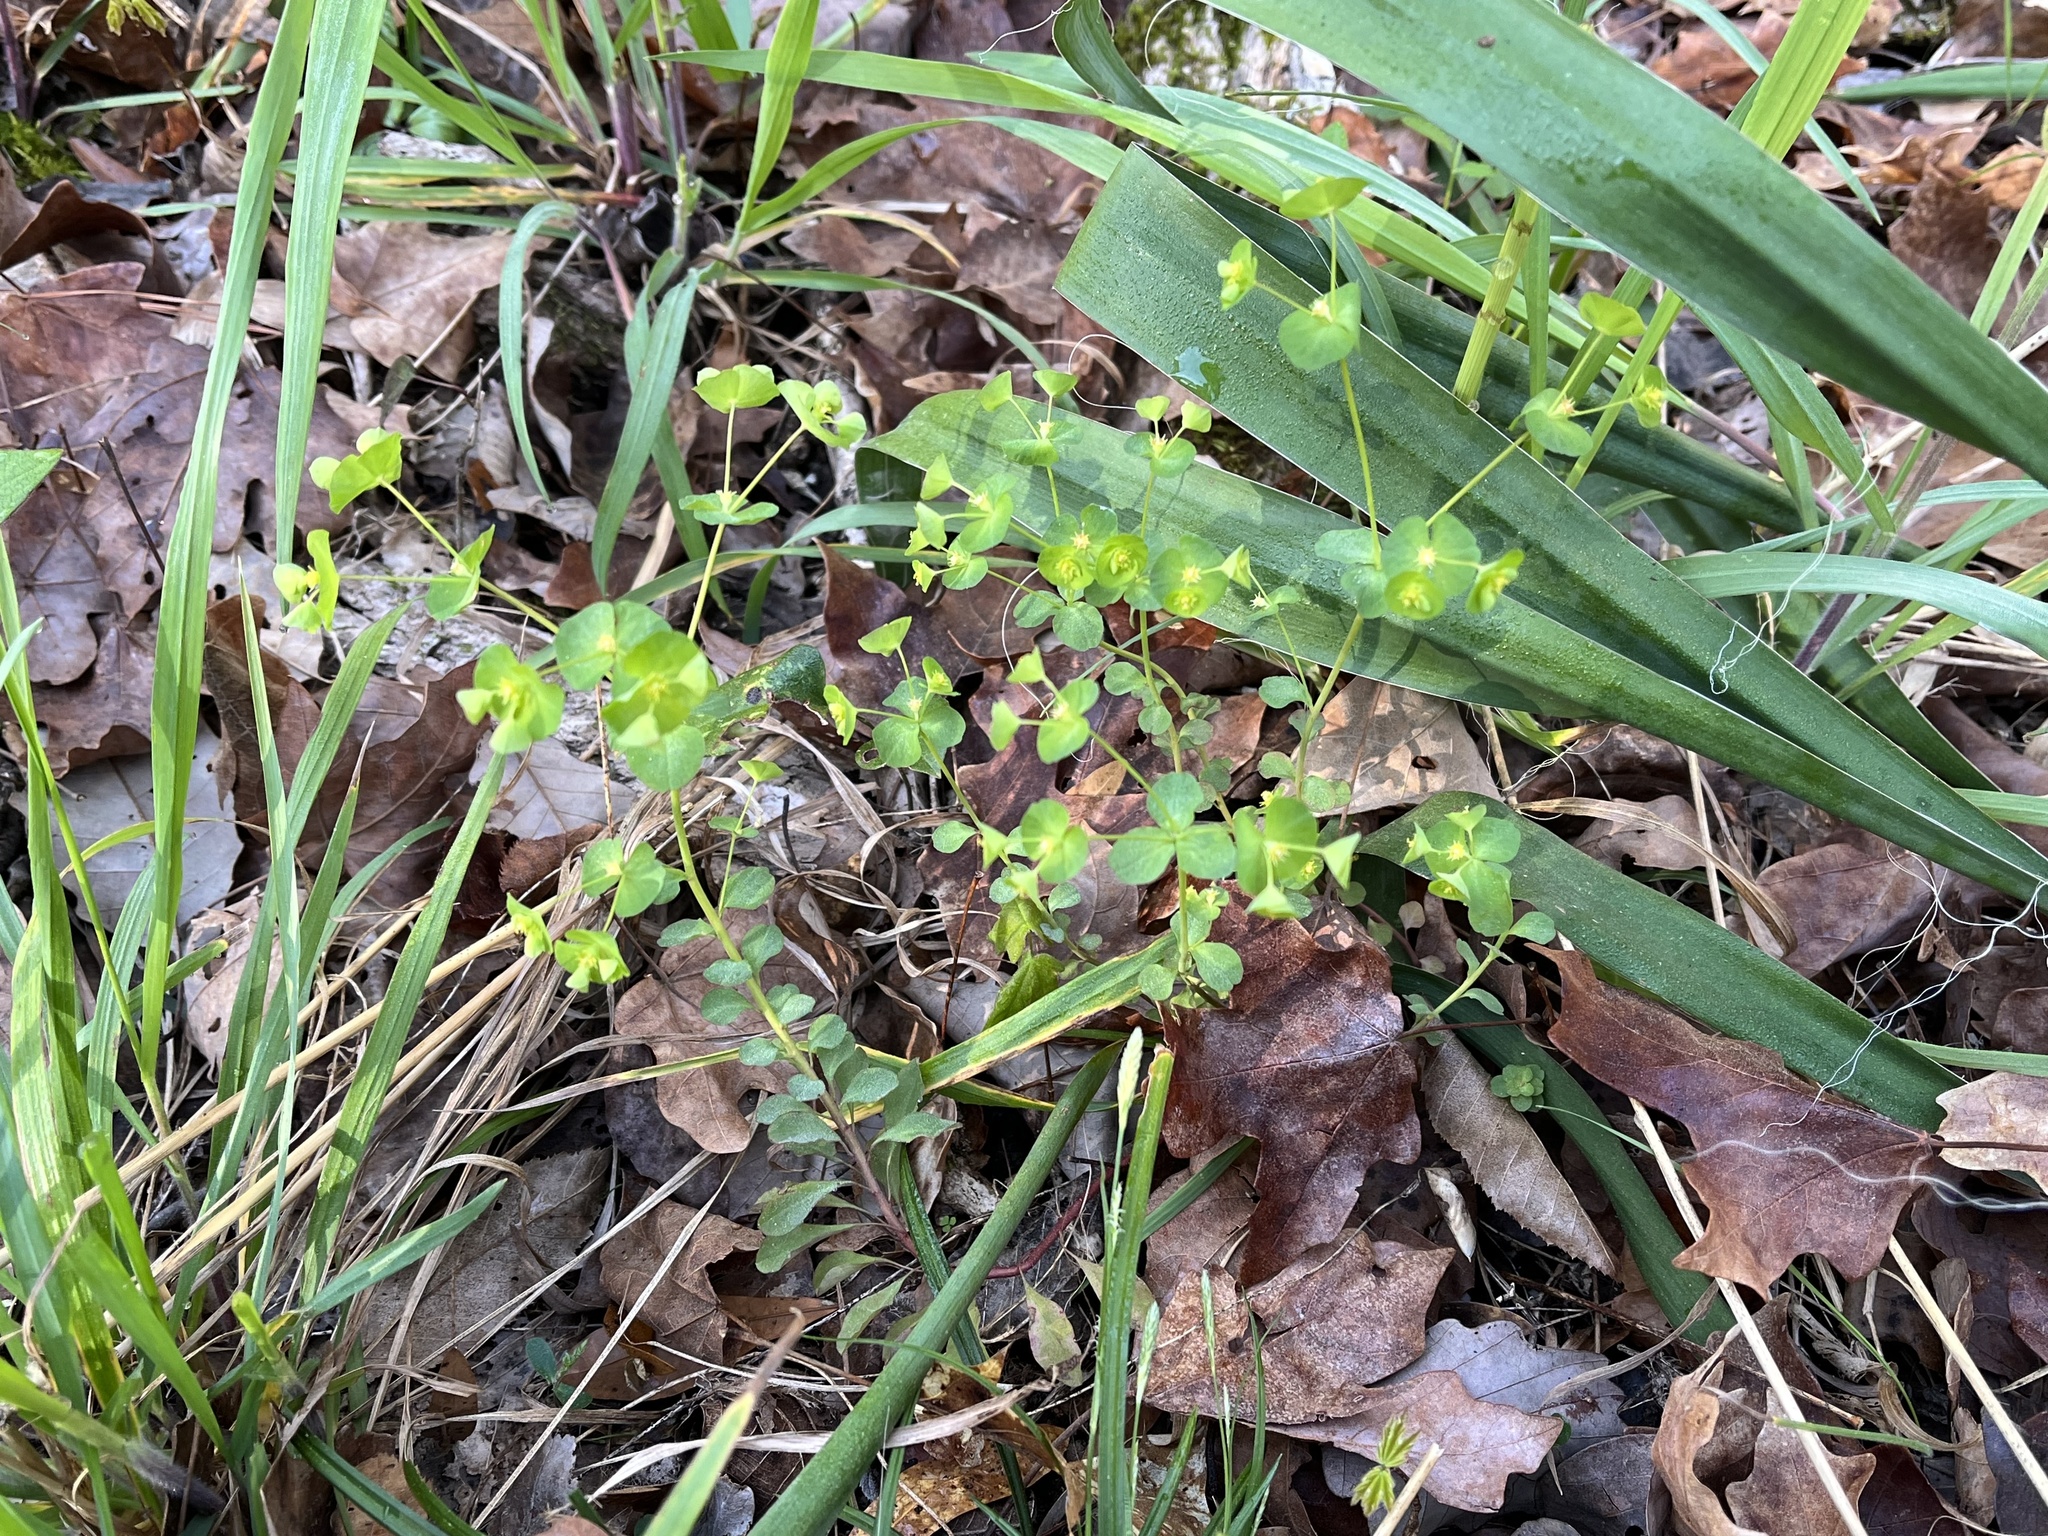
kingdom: Plantae
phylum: Tracheophyta
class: Magnoliopsida
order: Malpighiales
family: Euphorbiaceae
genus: Euphorbia
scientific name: Euphorbia commutata
